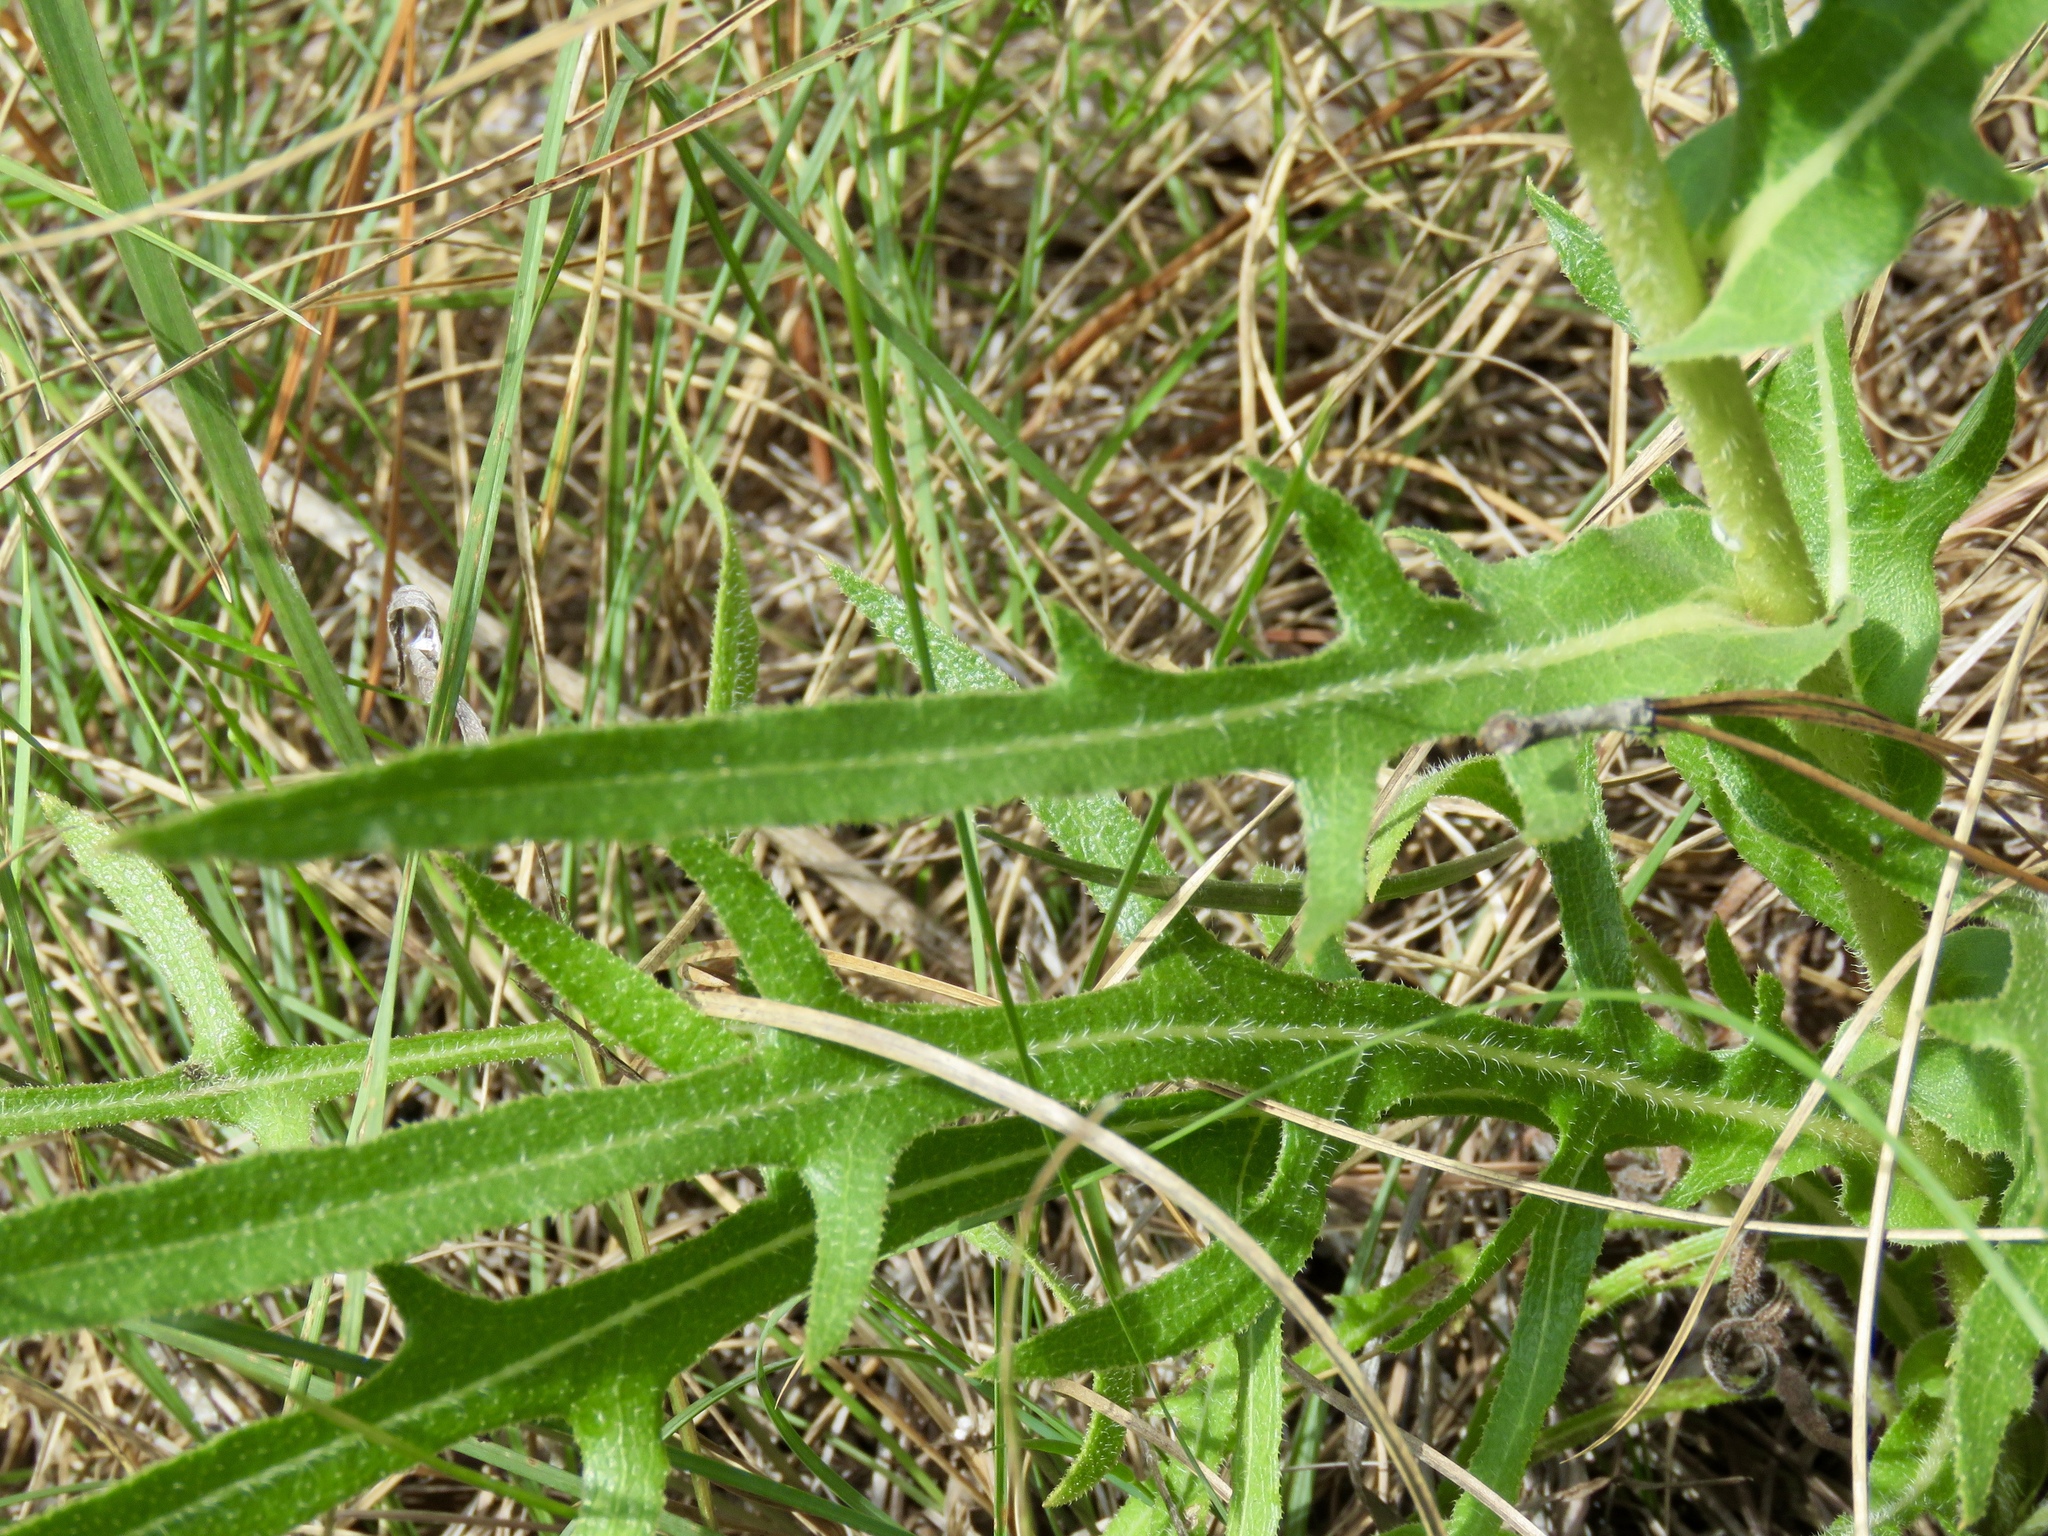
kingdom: Plantae
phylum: Tracheophyta
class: Magnoliopsida
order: Asterales
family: Asteraceae
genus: Silphium
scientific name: Silphium laciniatum
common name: Polarplant
